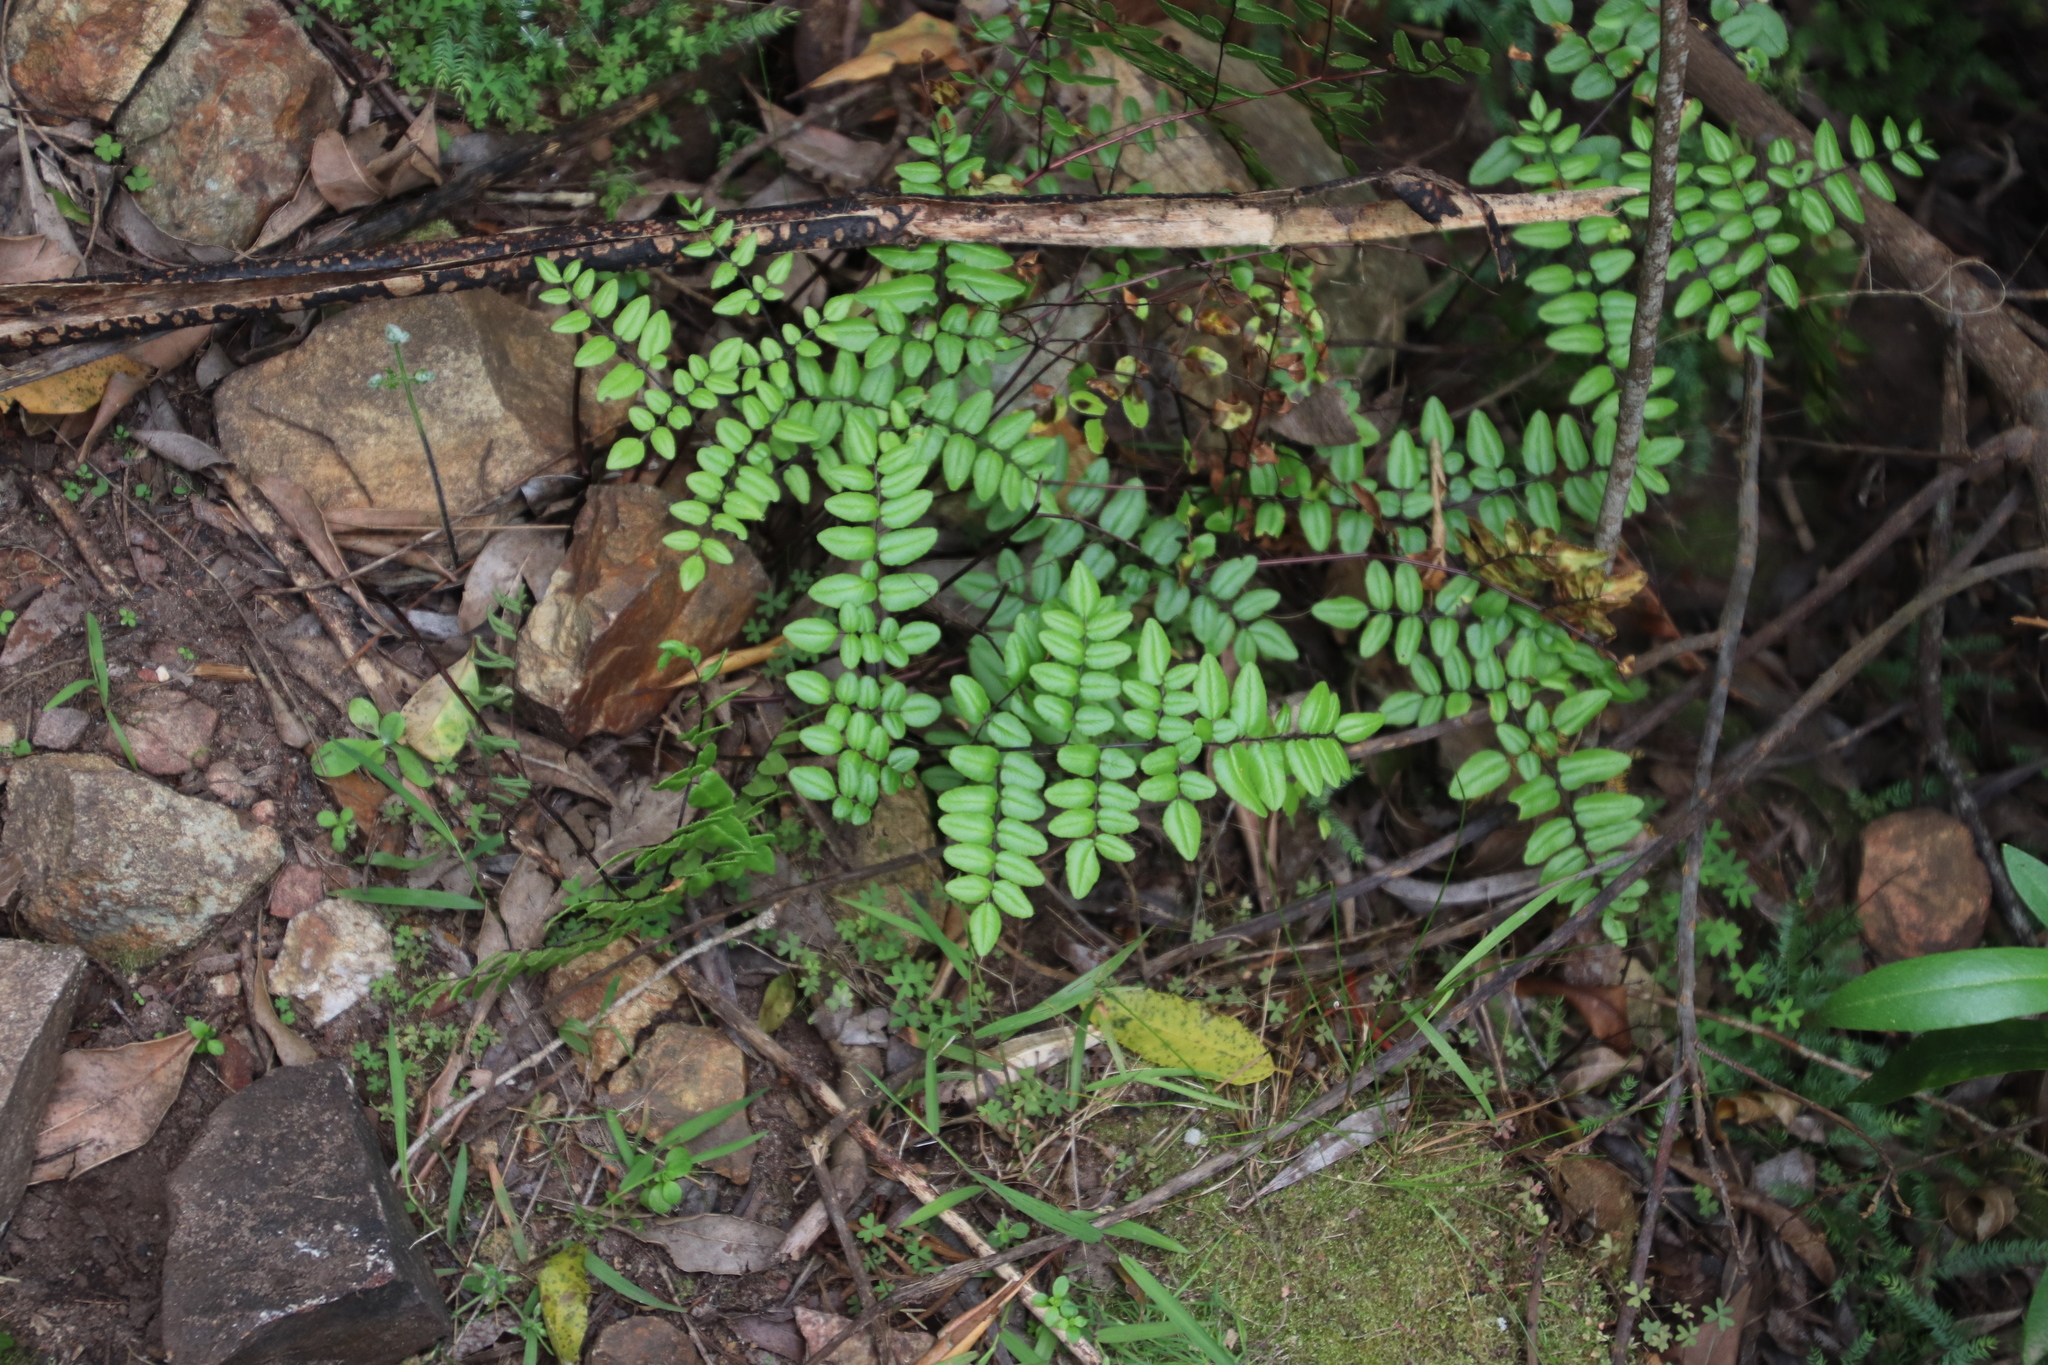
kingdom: Plantae
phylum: Tracheophyta
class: Polypodiopsida
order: Polypodiales
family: Pteridaceae
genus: Pellaea
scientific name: Pellaea pteroides
